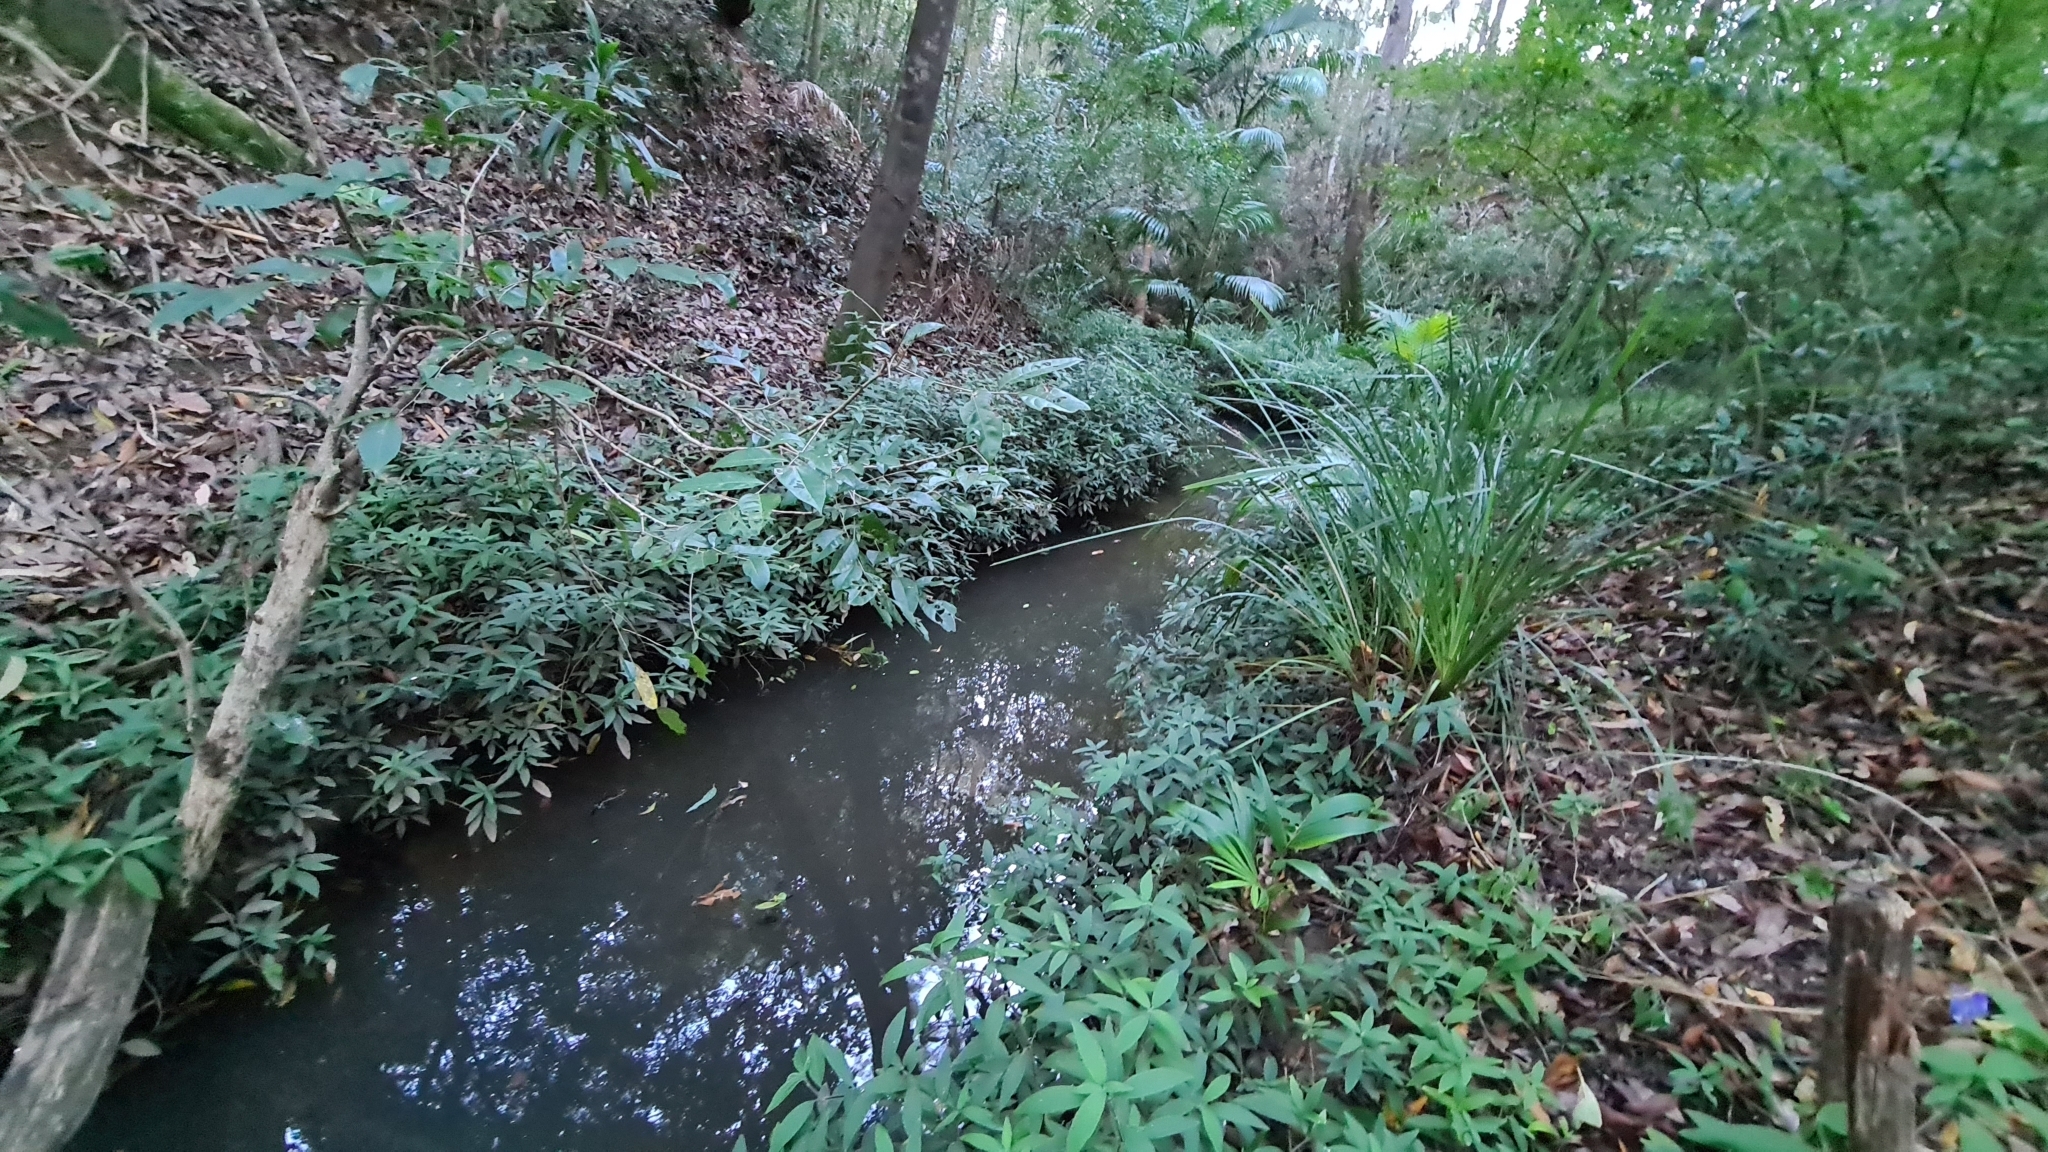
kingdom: Plantae
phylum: Tracheophyta
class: Magnoliopsida
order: Lamiales
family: Acanthaceae
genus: Ruellia
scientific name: Ruellia squarrosa
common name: Water bluebell
